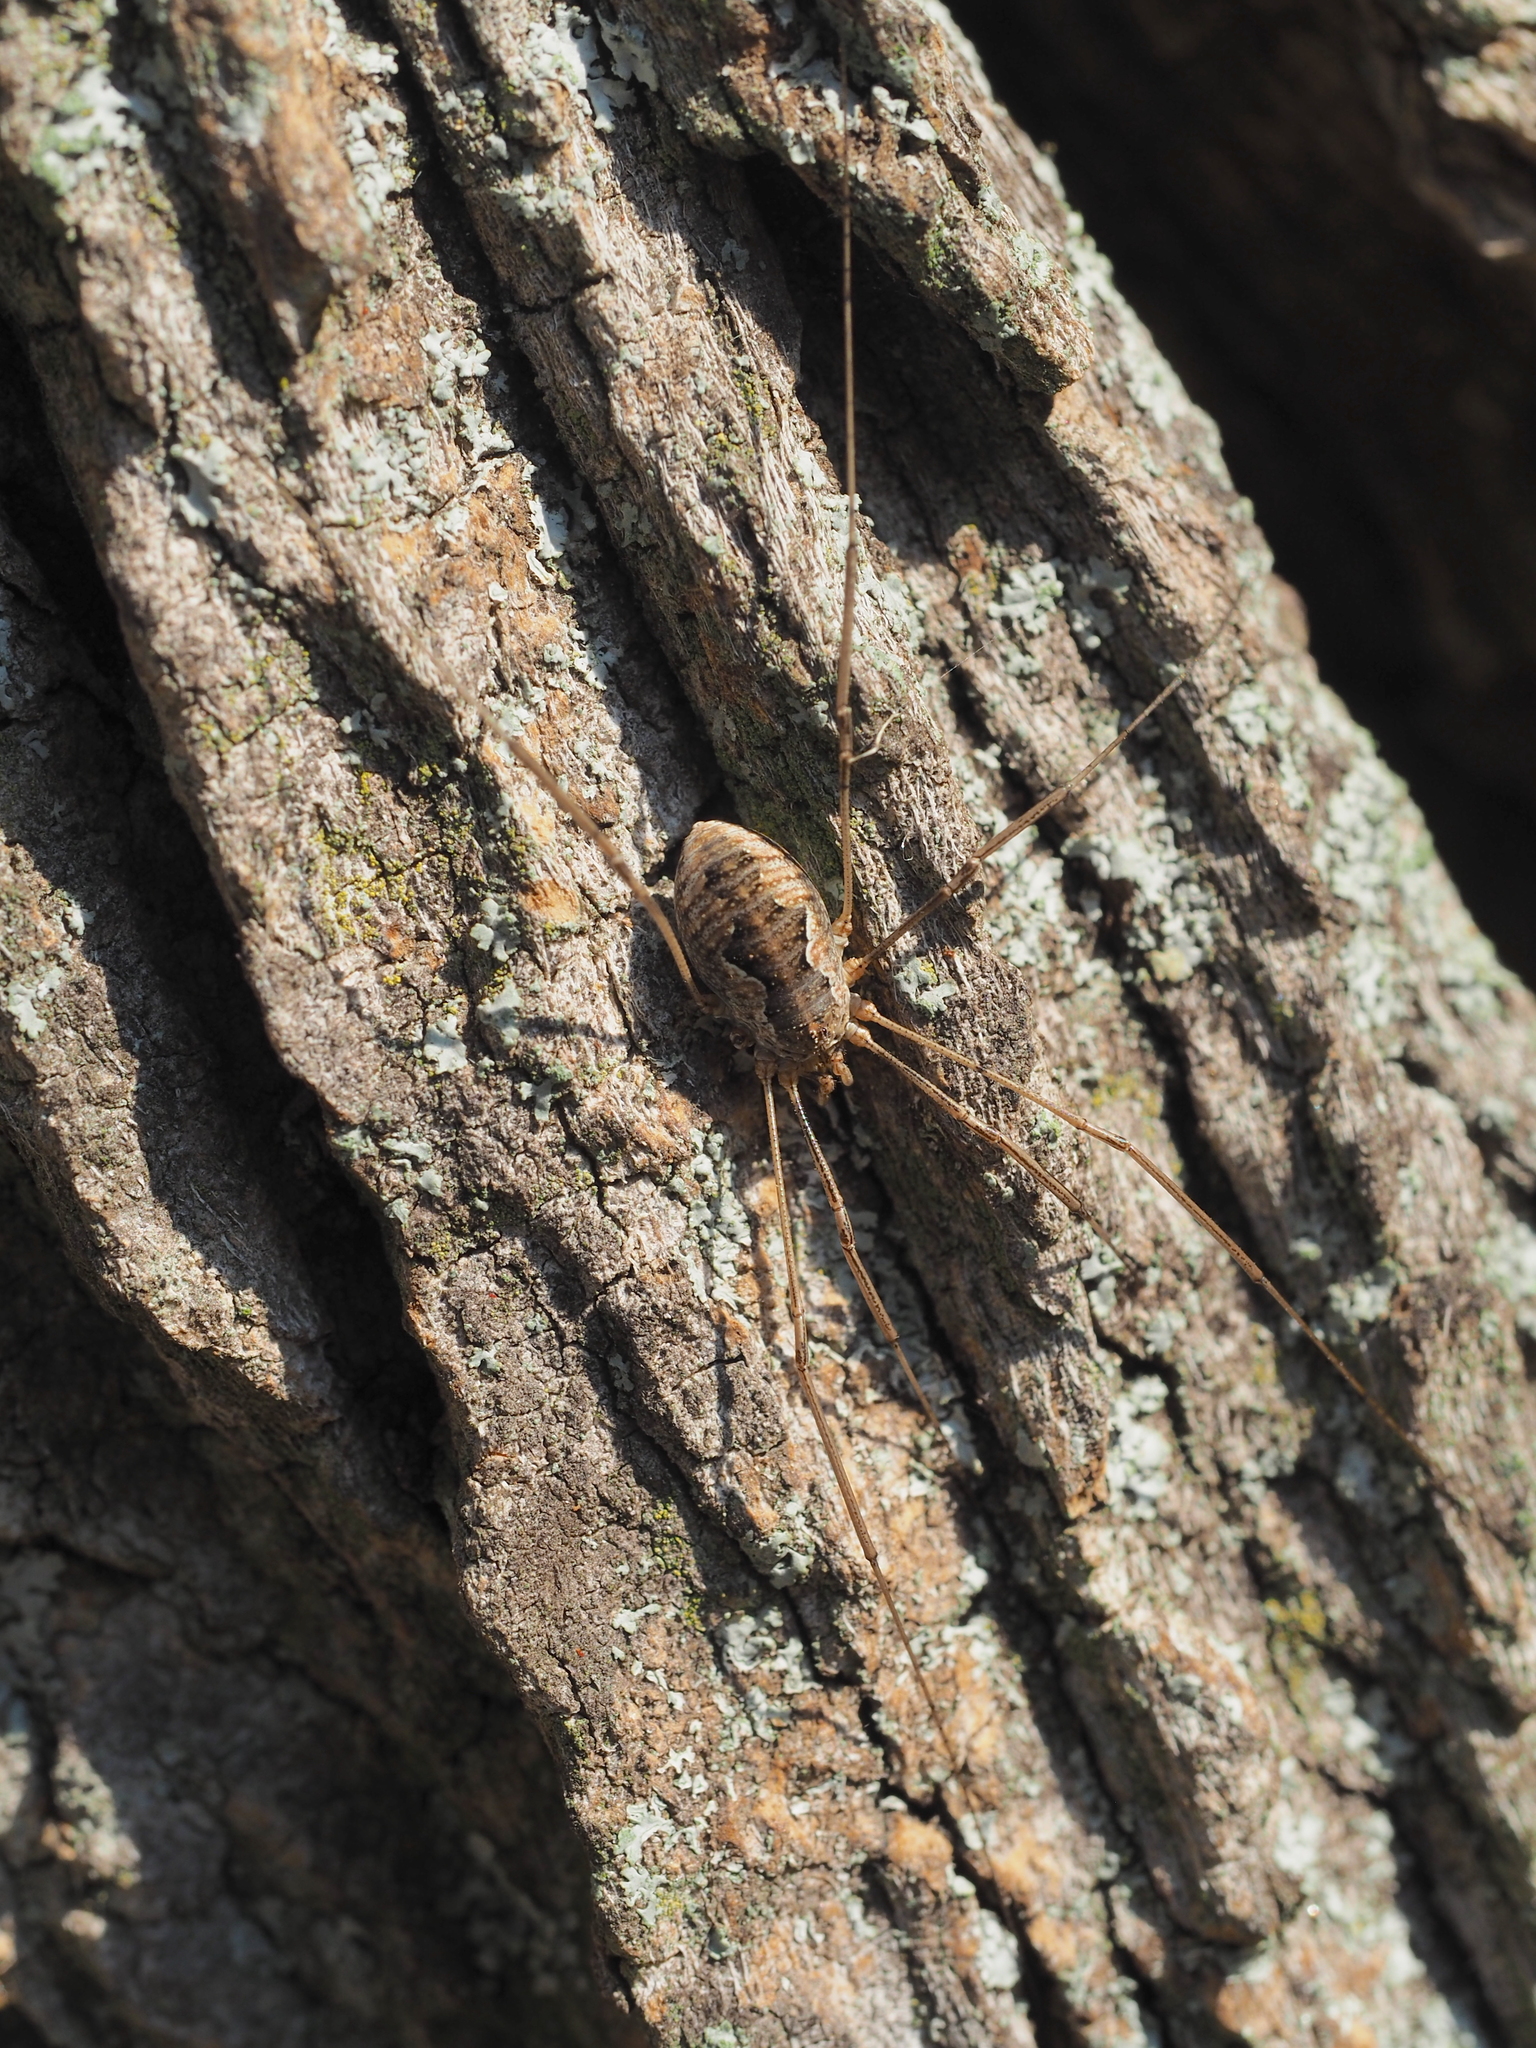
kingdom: Animalia
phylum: Arthropoda
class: Arachnida
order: Opiliones
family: Phalangiidae
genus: Phalangium
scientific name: Phalangium opilio
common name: Daddy longleg
